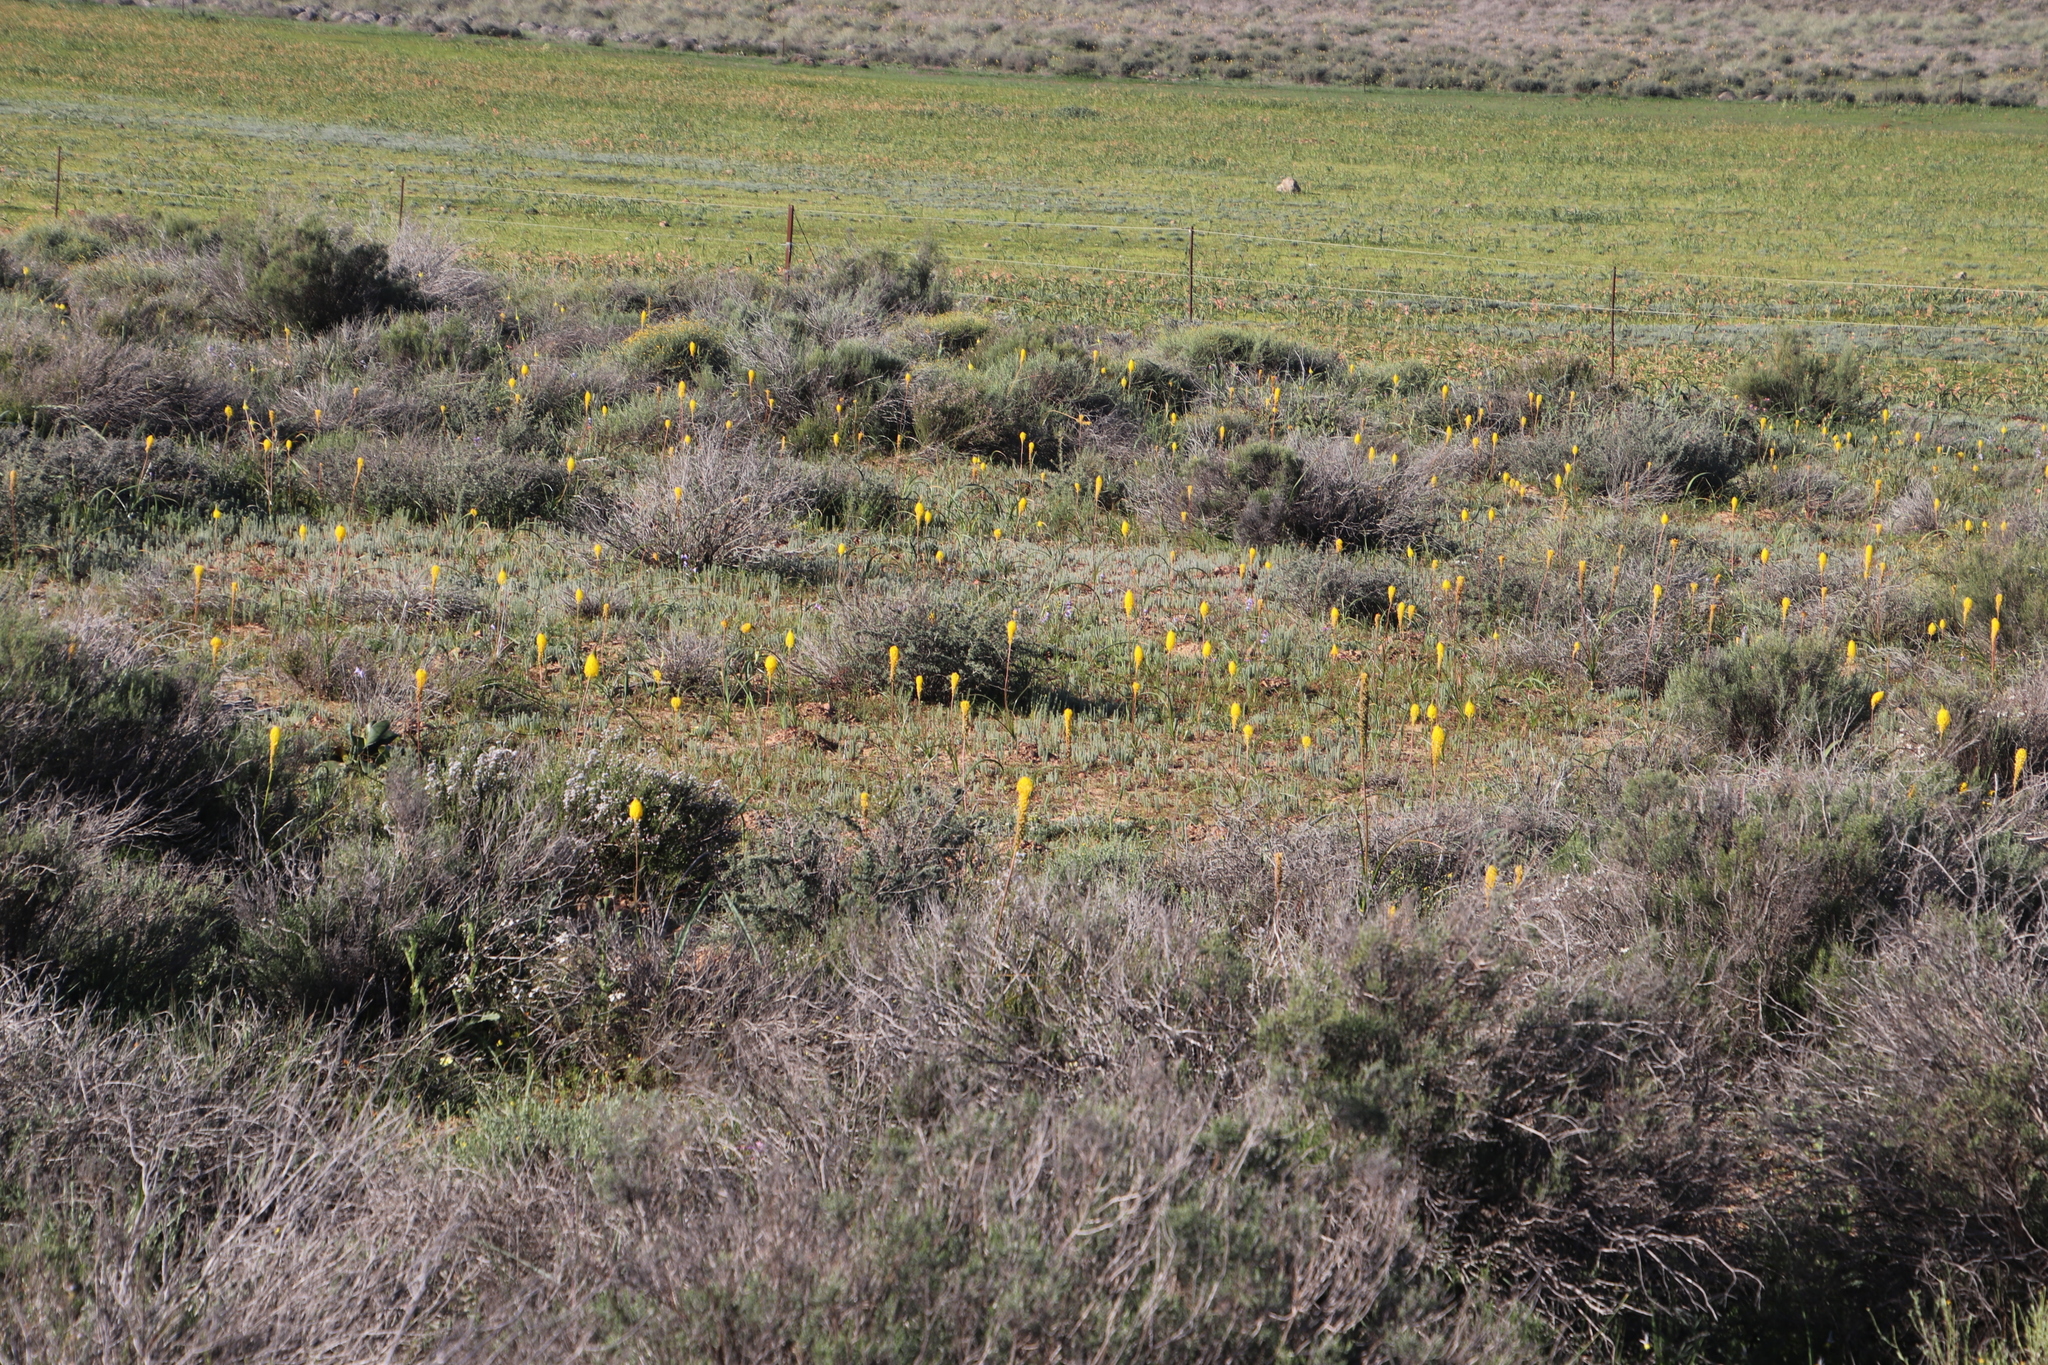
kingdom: Plantae
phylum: Tracheophyta
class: Liliopsida
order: Asparagales
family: Asphodelaceae
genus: Bulbinella
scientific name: Bulbinella nutans
